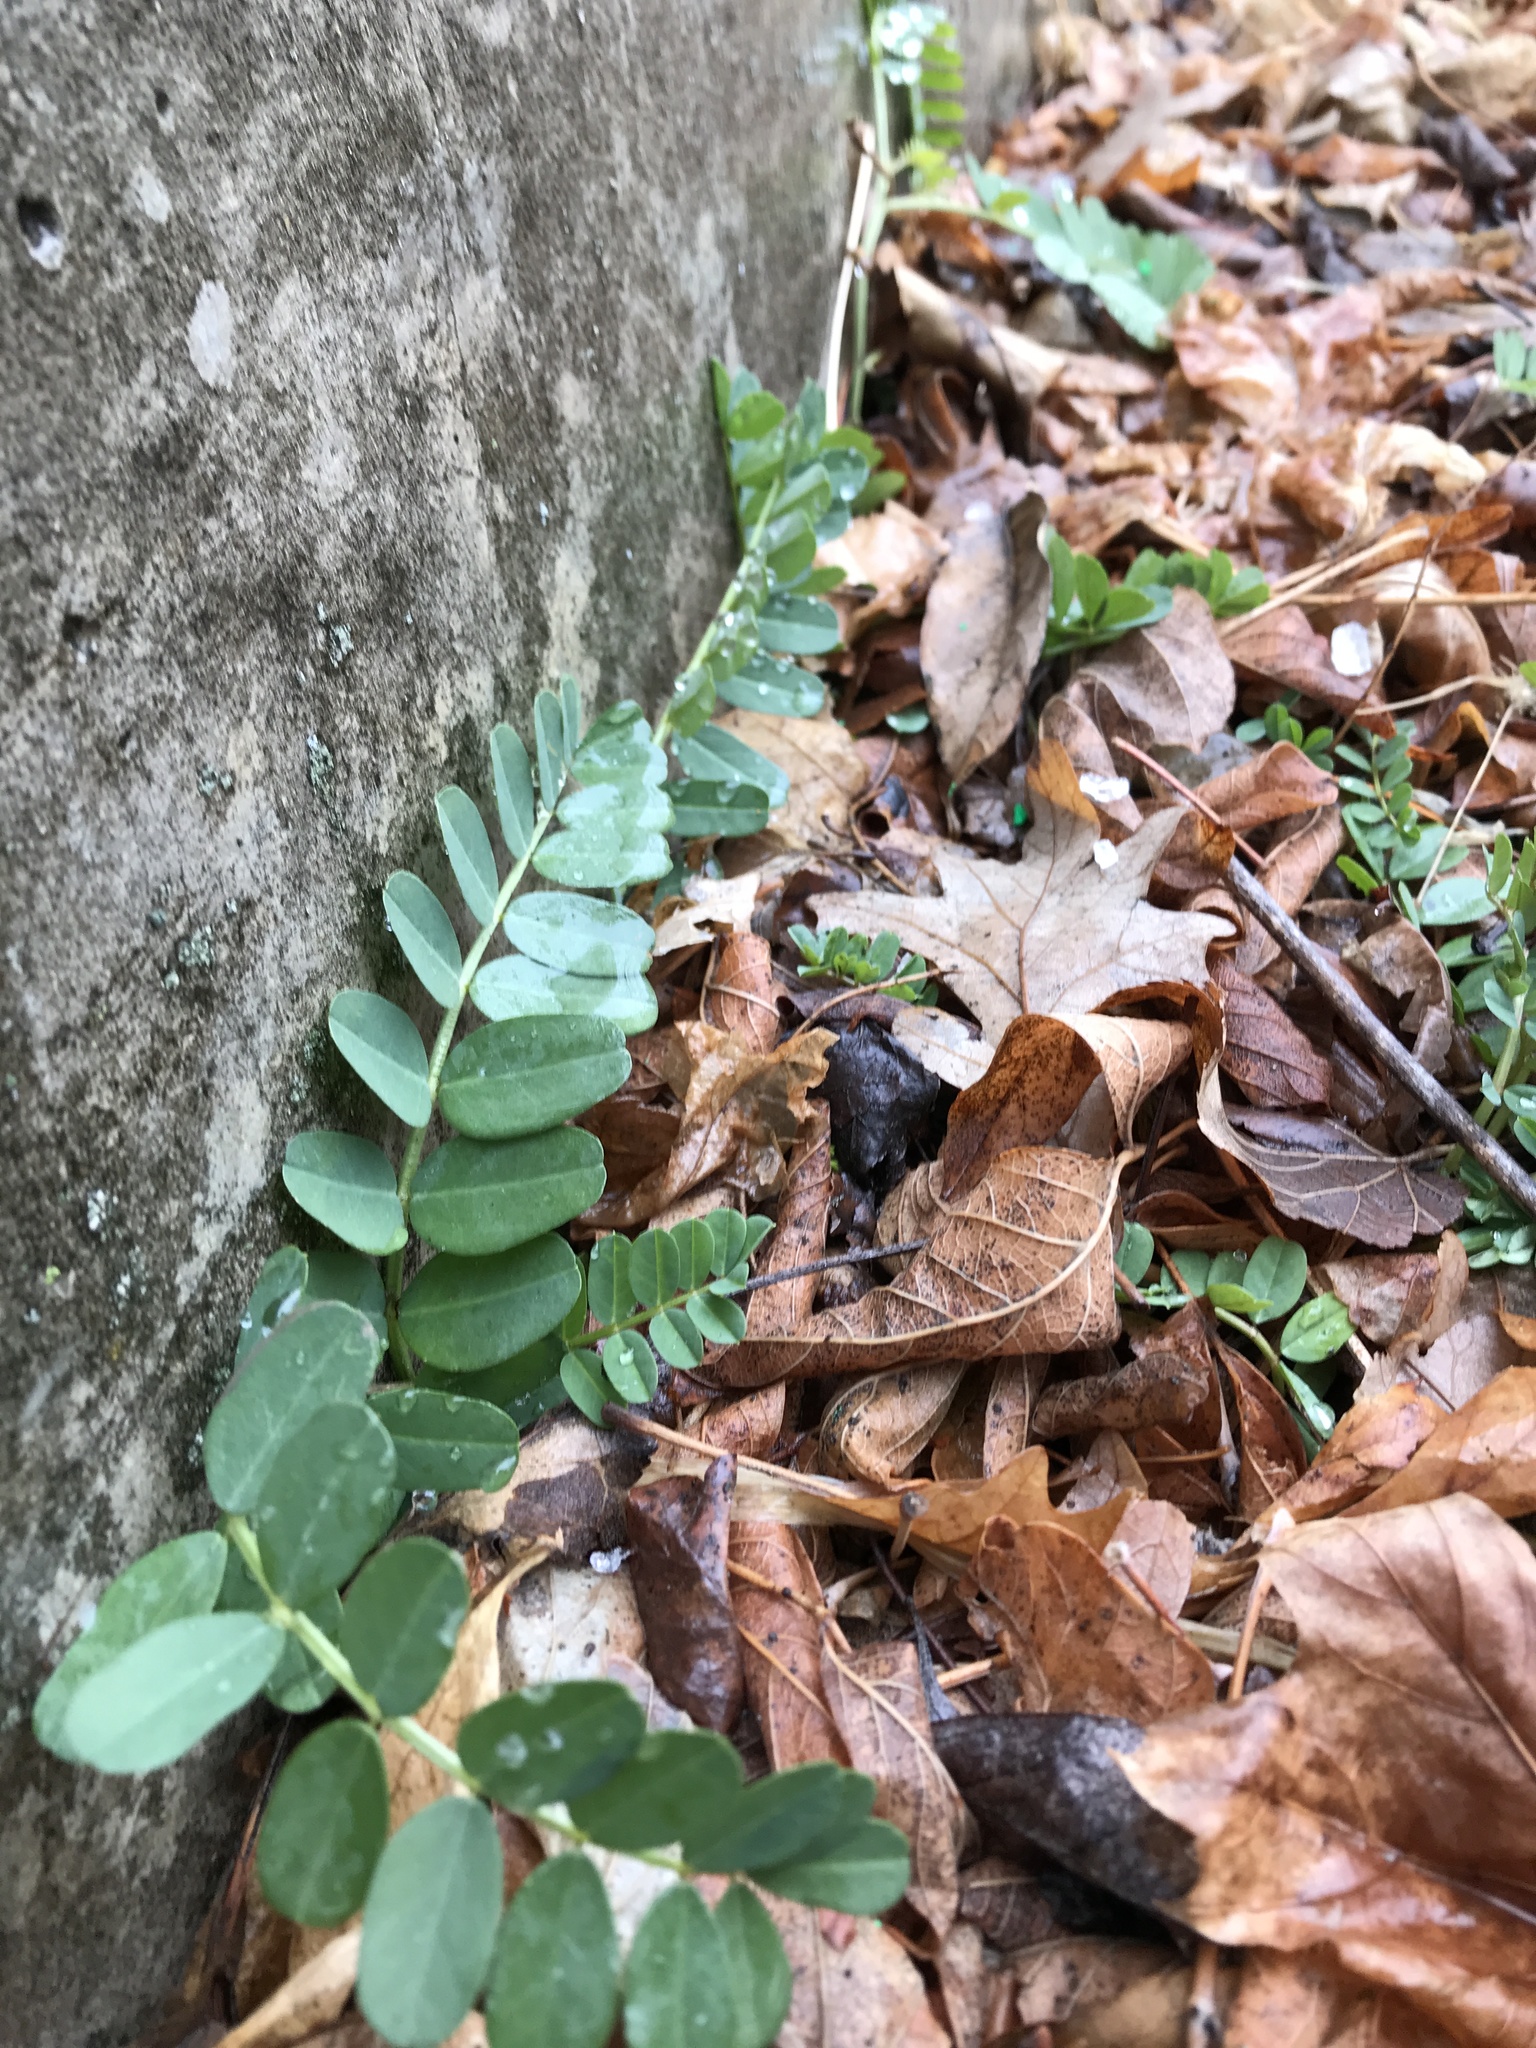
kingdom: Plantae
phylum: Tracheophyta
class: Magnoliopsida
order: Fabales
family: Fabaceae
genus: Coronilla
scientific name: Coronilla varia
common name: Crownvetch
